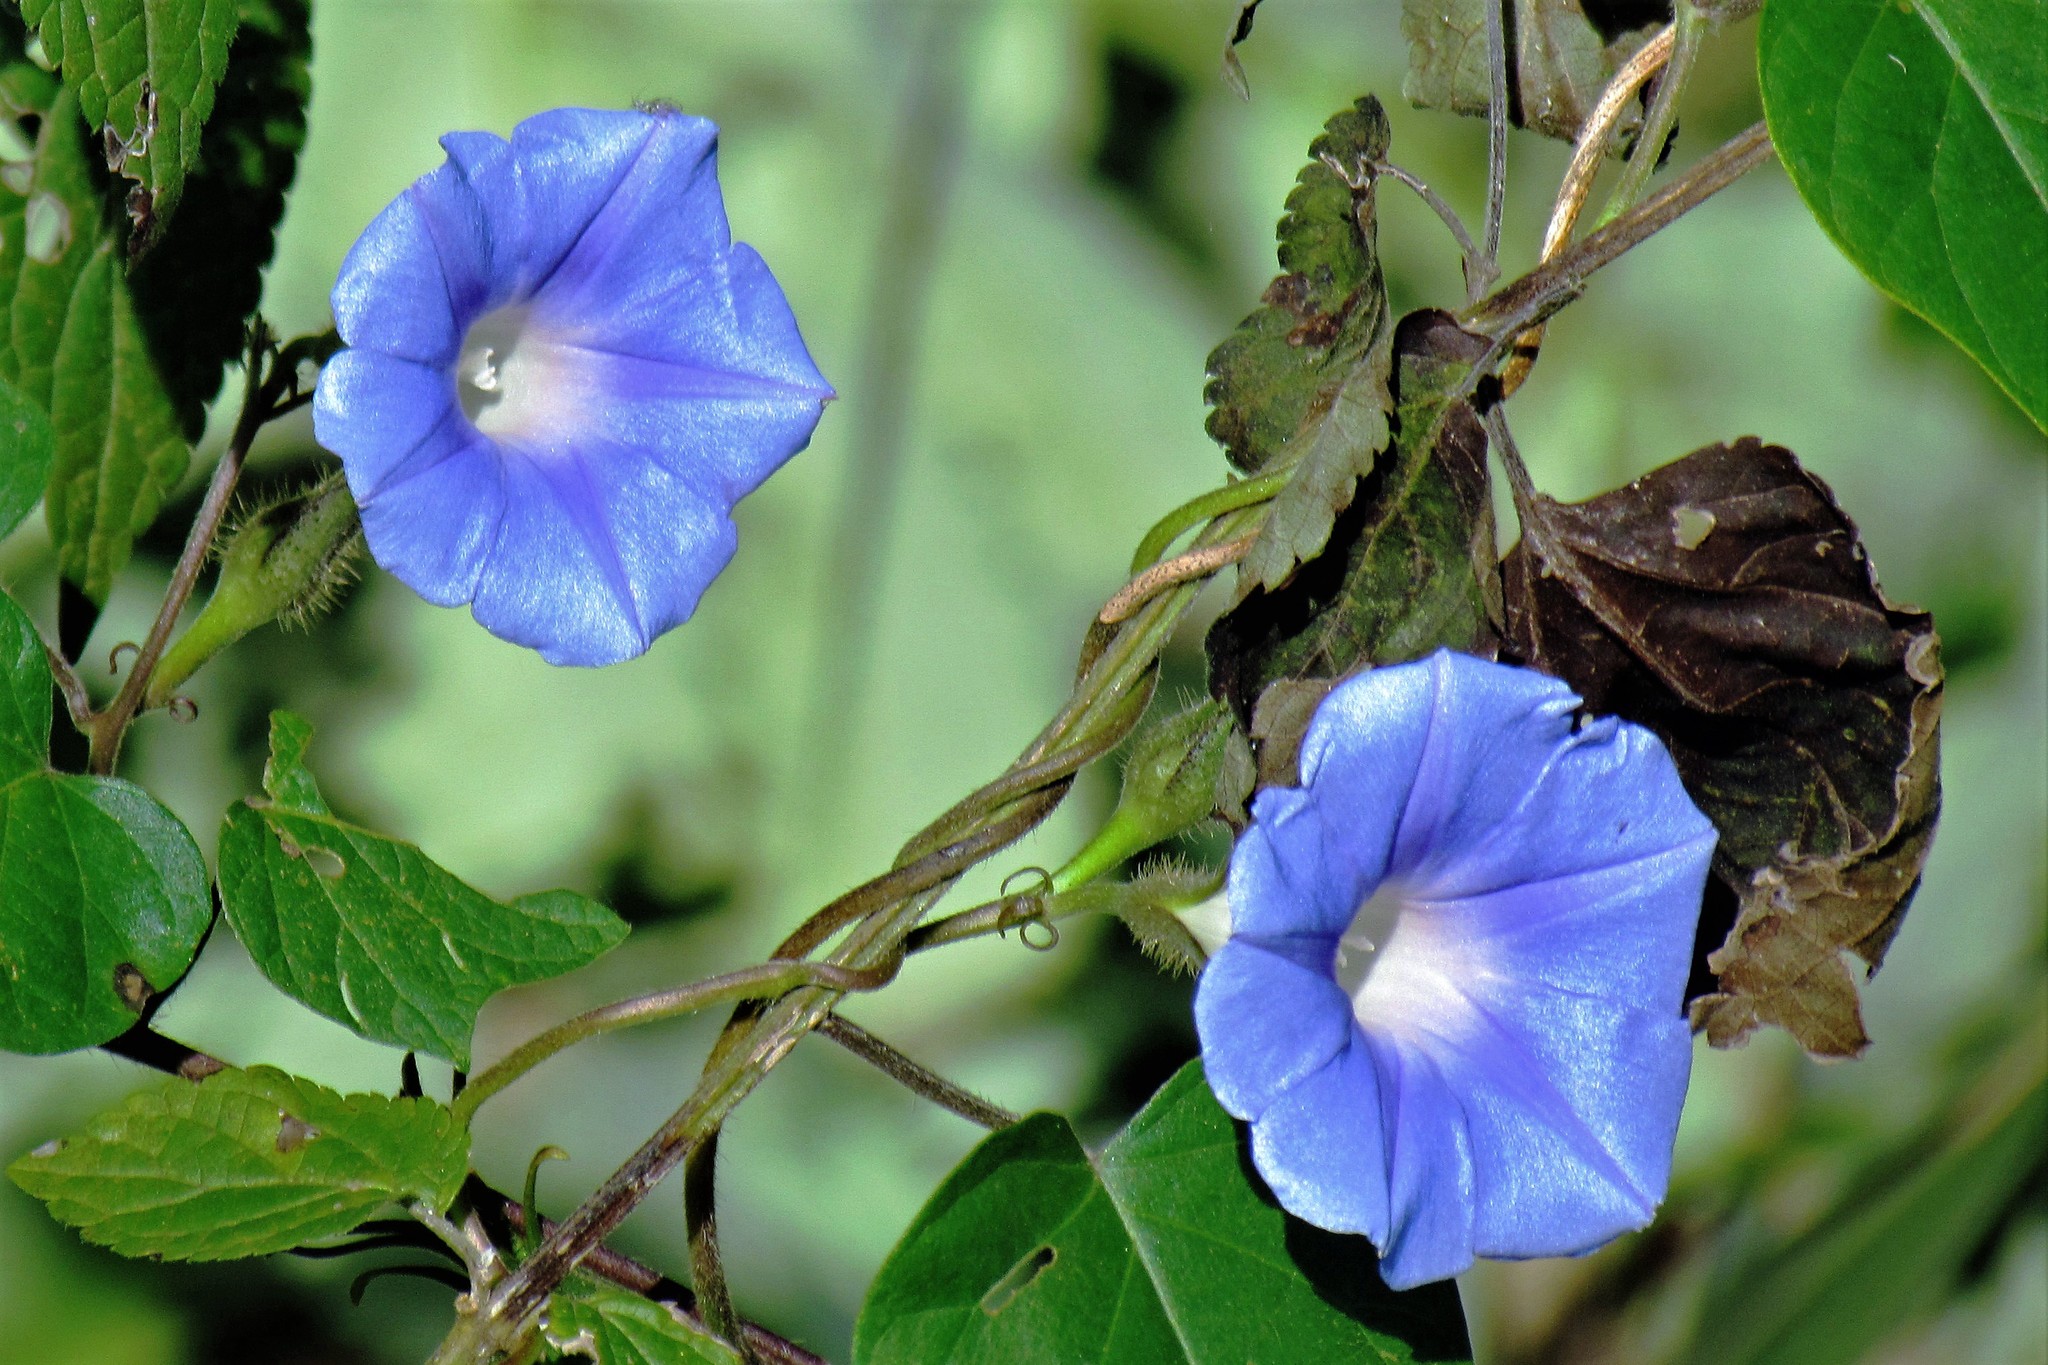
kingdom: Plantae
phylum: Tracheophyta
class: Magnoliopsida
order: Solanales
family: Convolvulaceae
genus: Ipomoea
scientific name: Ipomoea nil
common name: Japanese morning-glory
